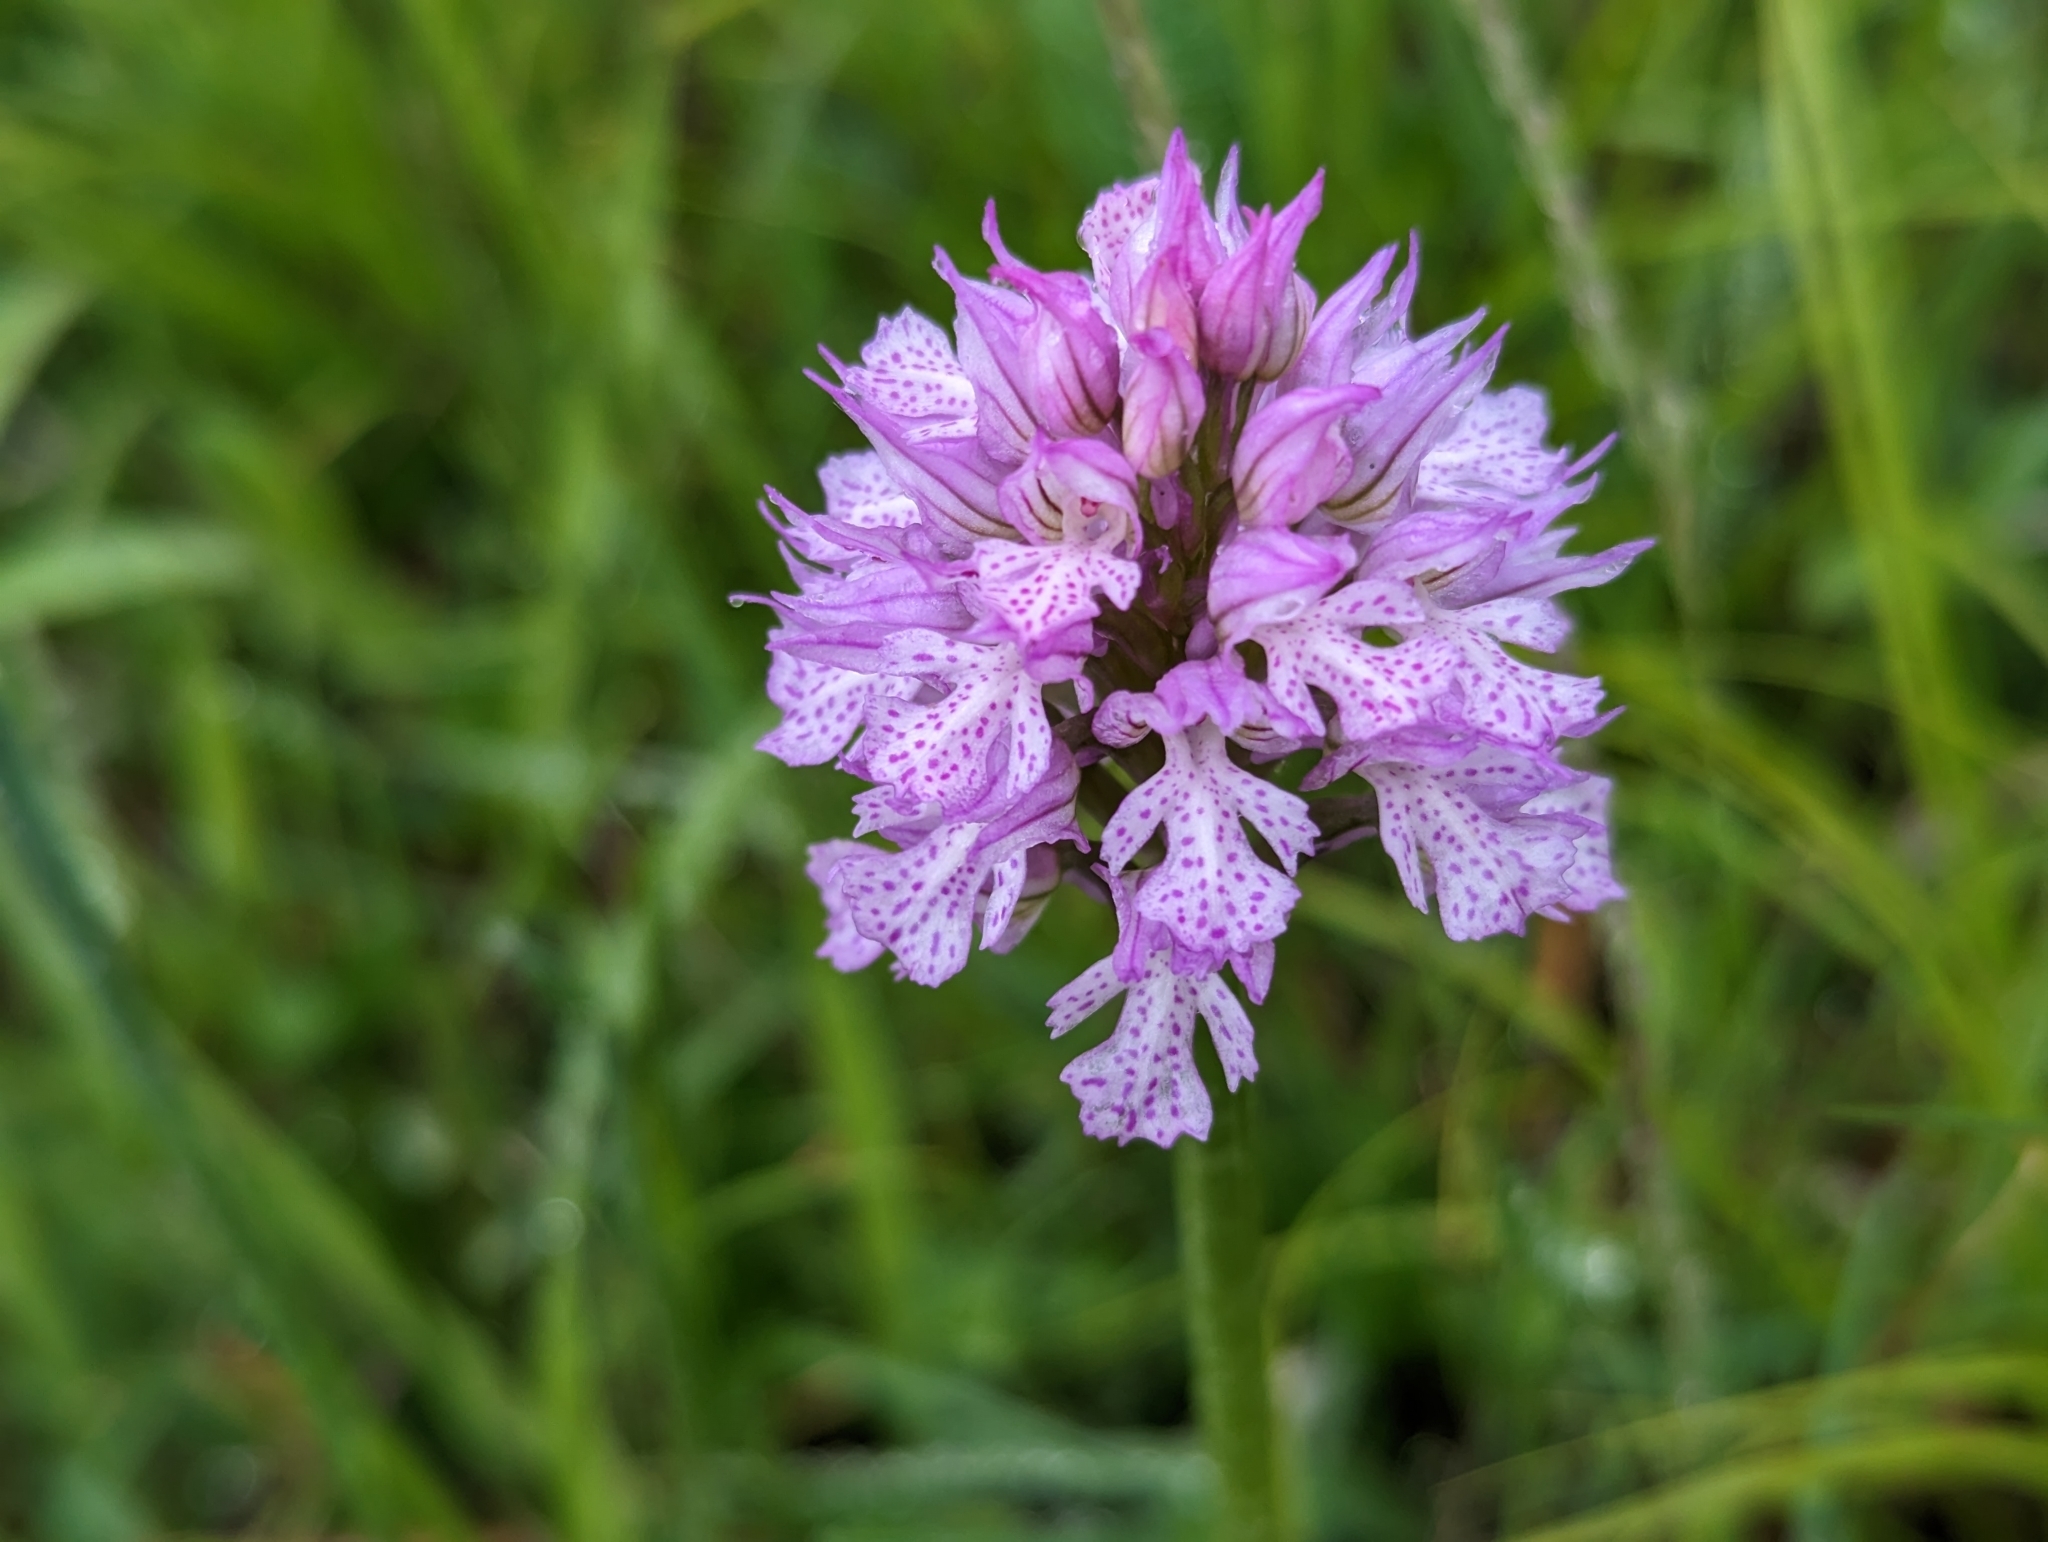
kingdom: Plantae
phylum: Tracheophyta
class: Liliopsida
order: Asparagales
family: Orchidaceae
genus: Neotinea
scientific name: Neotinea tridentata
